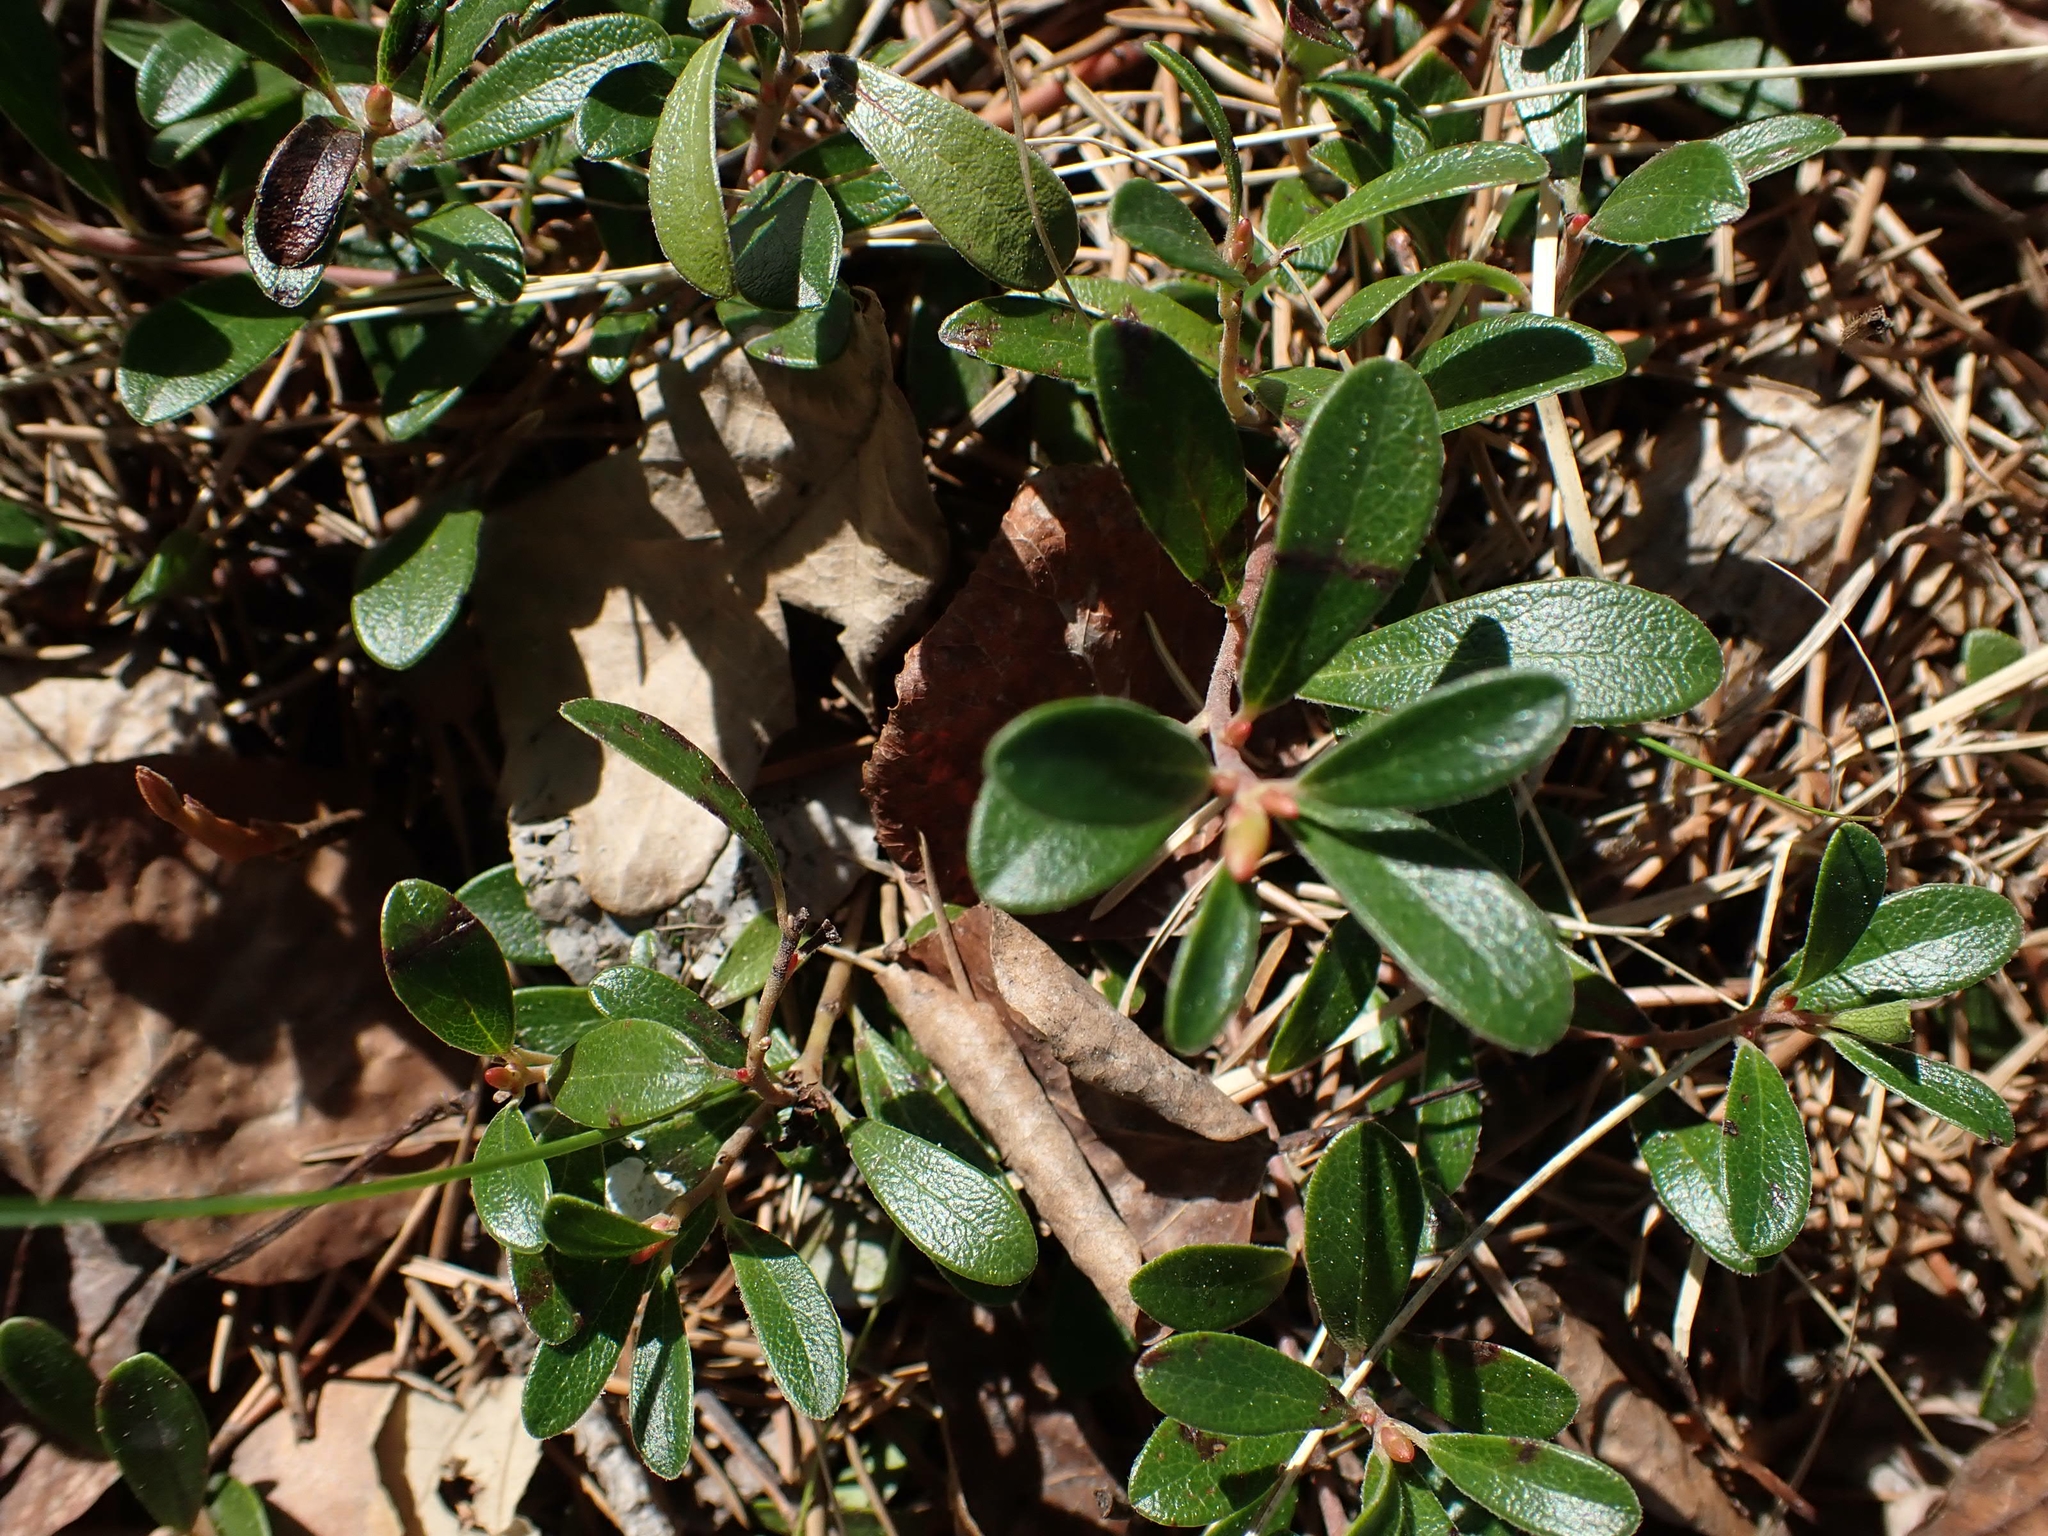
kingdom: Plantae
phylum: Tracheophyta
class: Magnoliopsida
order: Ericales
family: Ericaceae
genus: Arctostaphylos
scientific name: Arctostaphylos uva-ursi
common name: Bearberry
